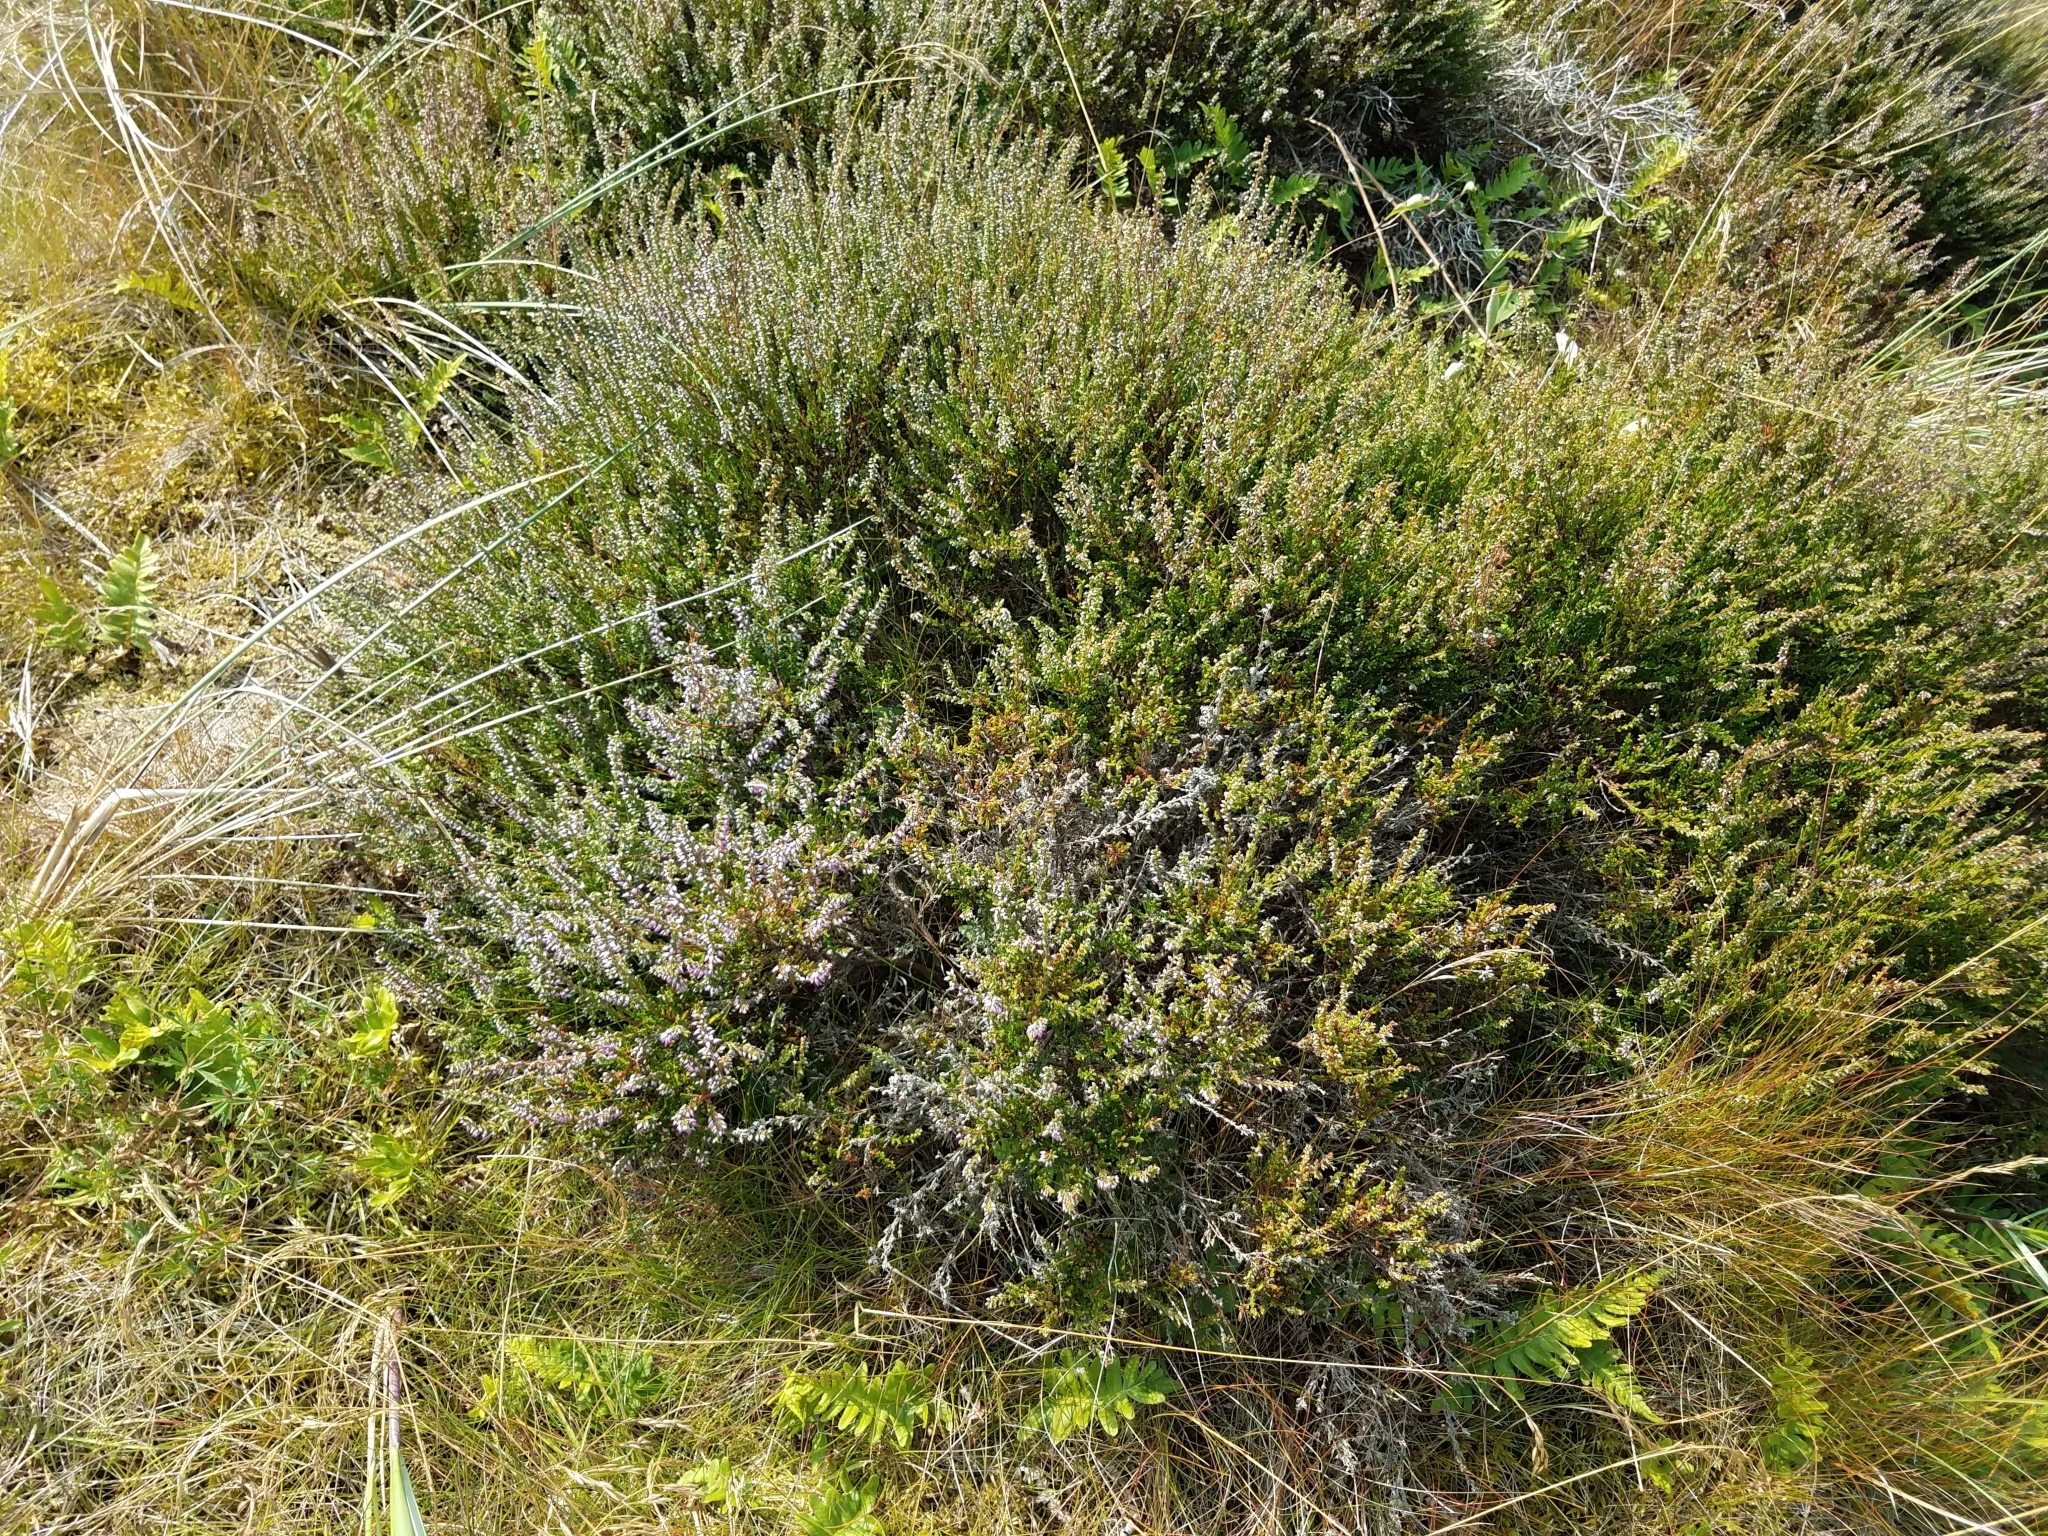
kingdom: Plantae
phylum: Tracheophyta
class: Magnoliopsida
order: Ericales
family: Ericaceae
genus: Calluna
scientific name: Calluna vulgaris
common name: Heather
